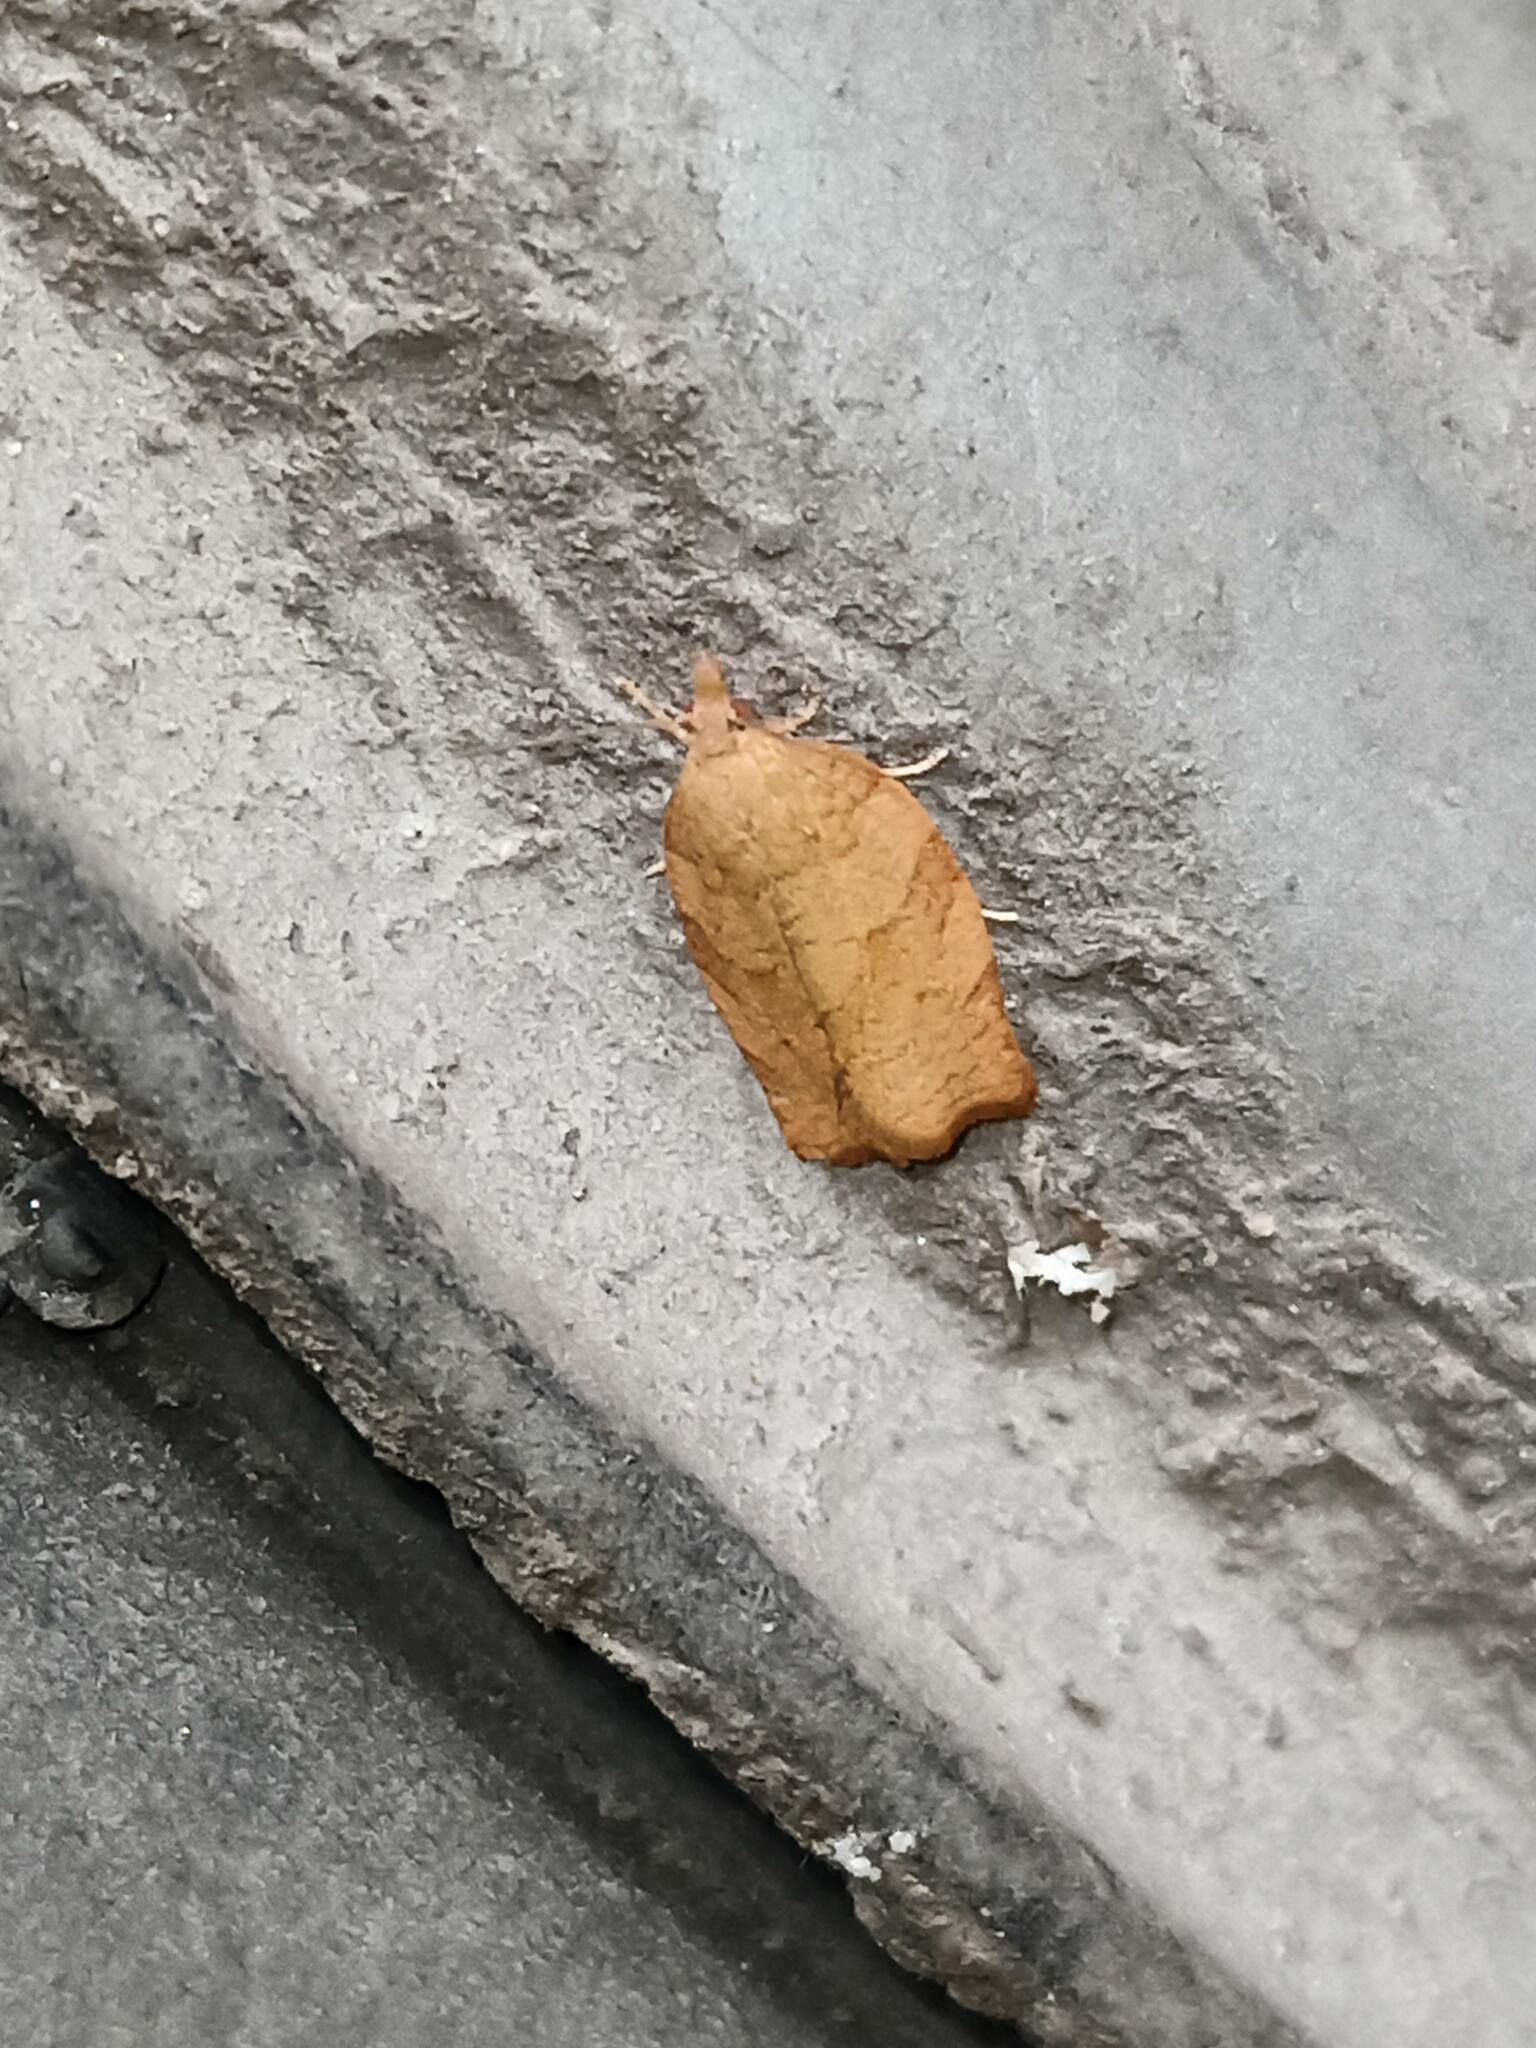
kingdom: Animalia
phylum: Arthropoda
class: Insecta
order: Lepidoptera
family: Tortricidae
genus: Pandemis
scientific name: Pandemis heparana
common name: Dark fruit-tree tortrix
